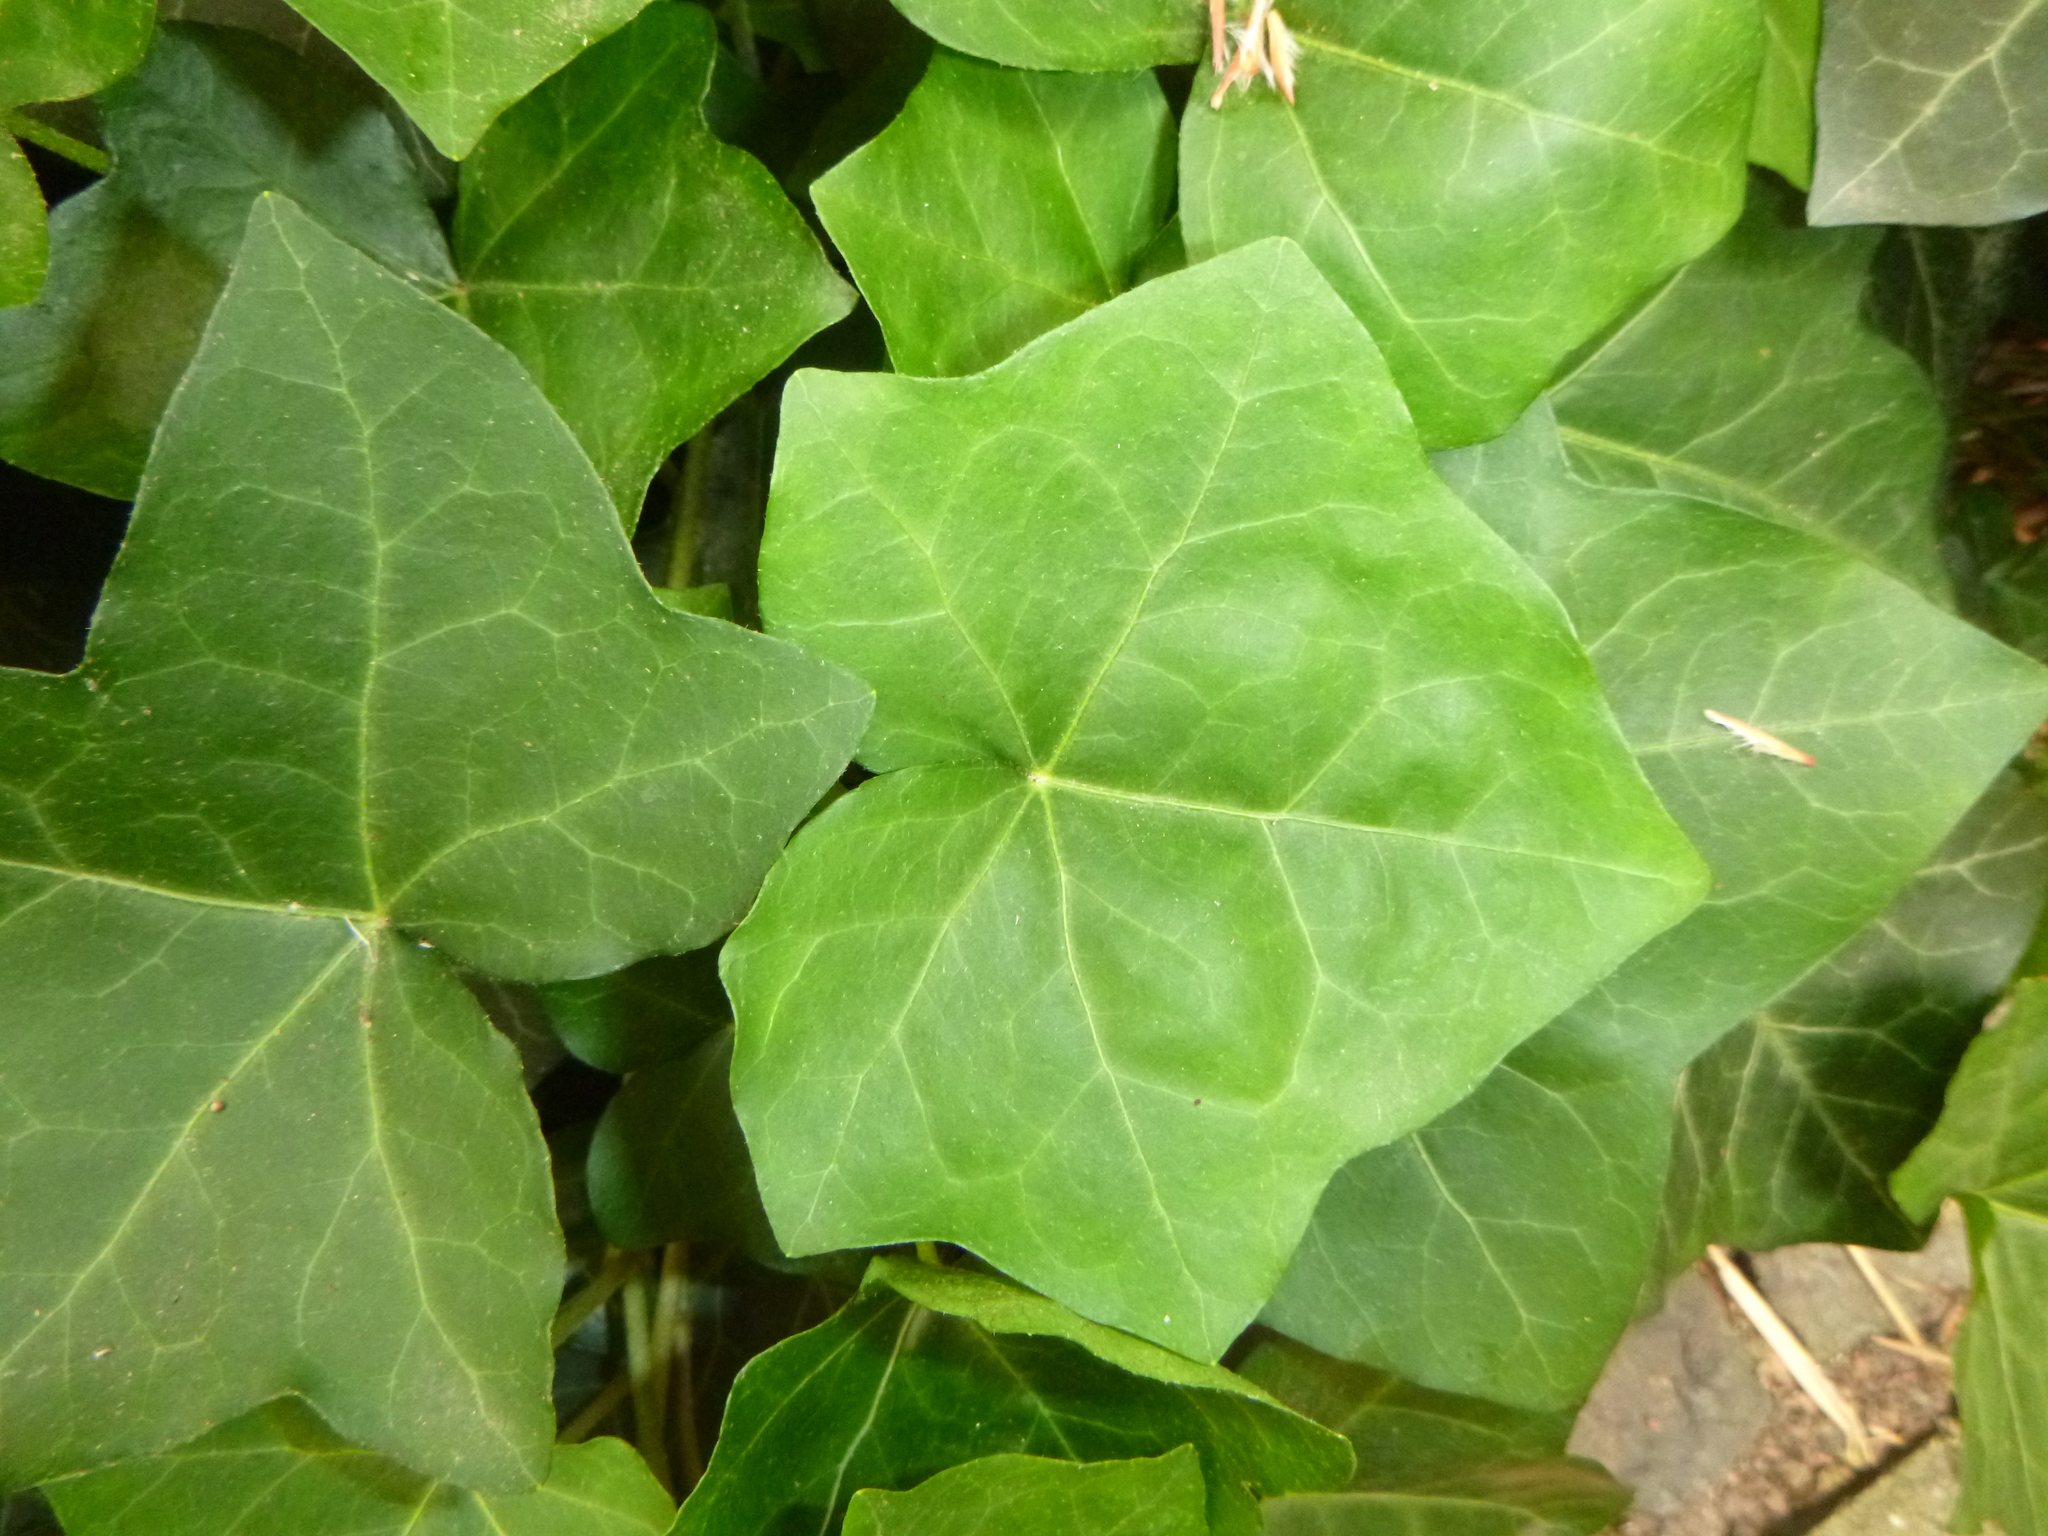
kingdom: Plantae
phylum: Tracheophyta
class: Magnoliopsida
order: Apiales
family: Araliaceae
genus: Hedera
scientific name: Hedera helix
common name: Ivy
